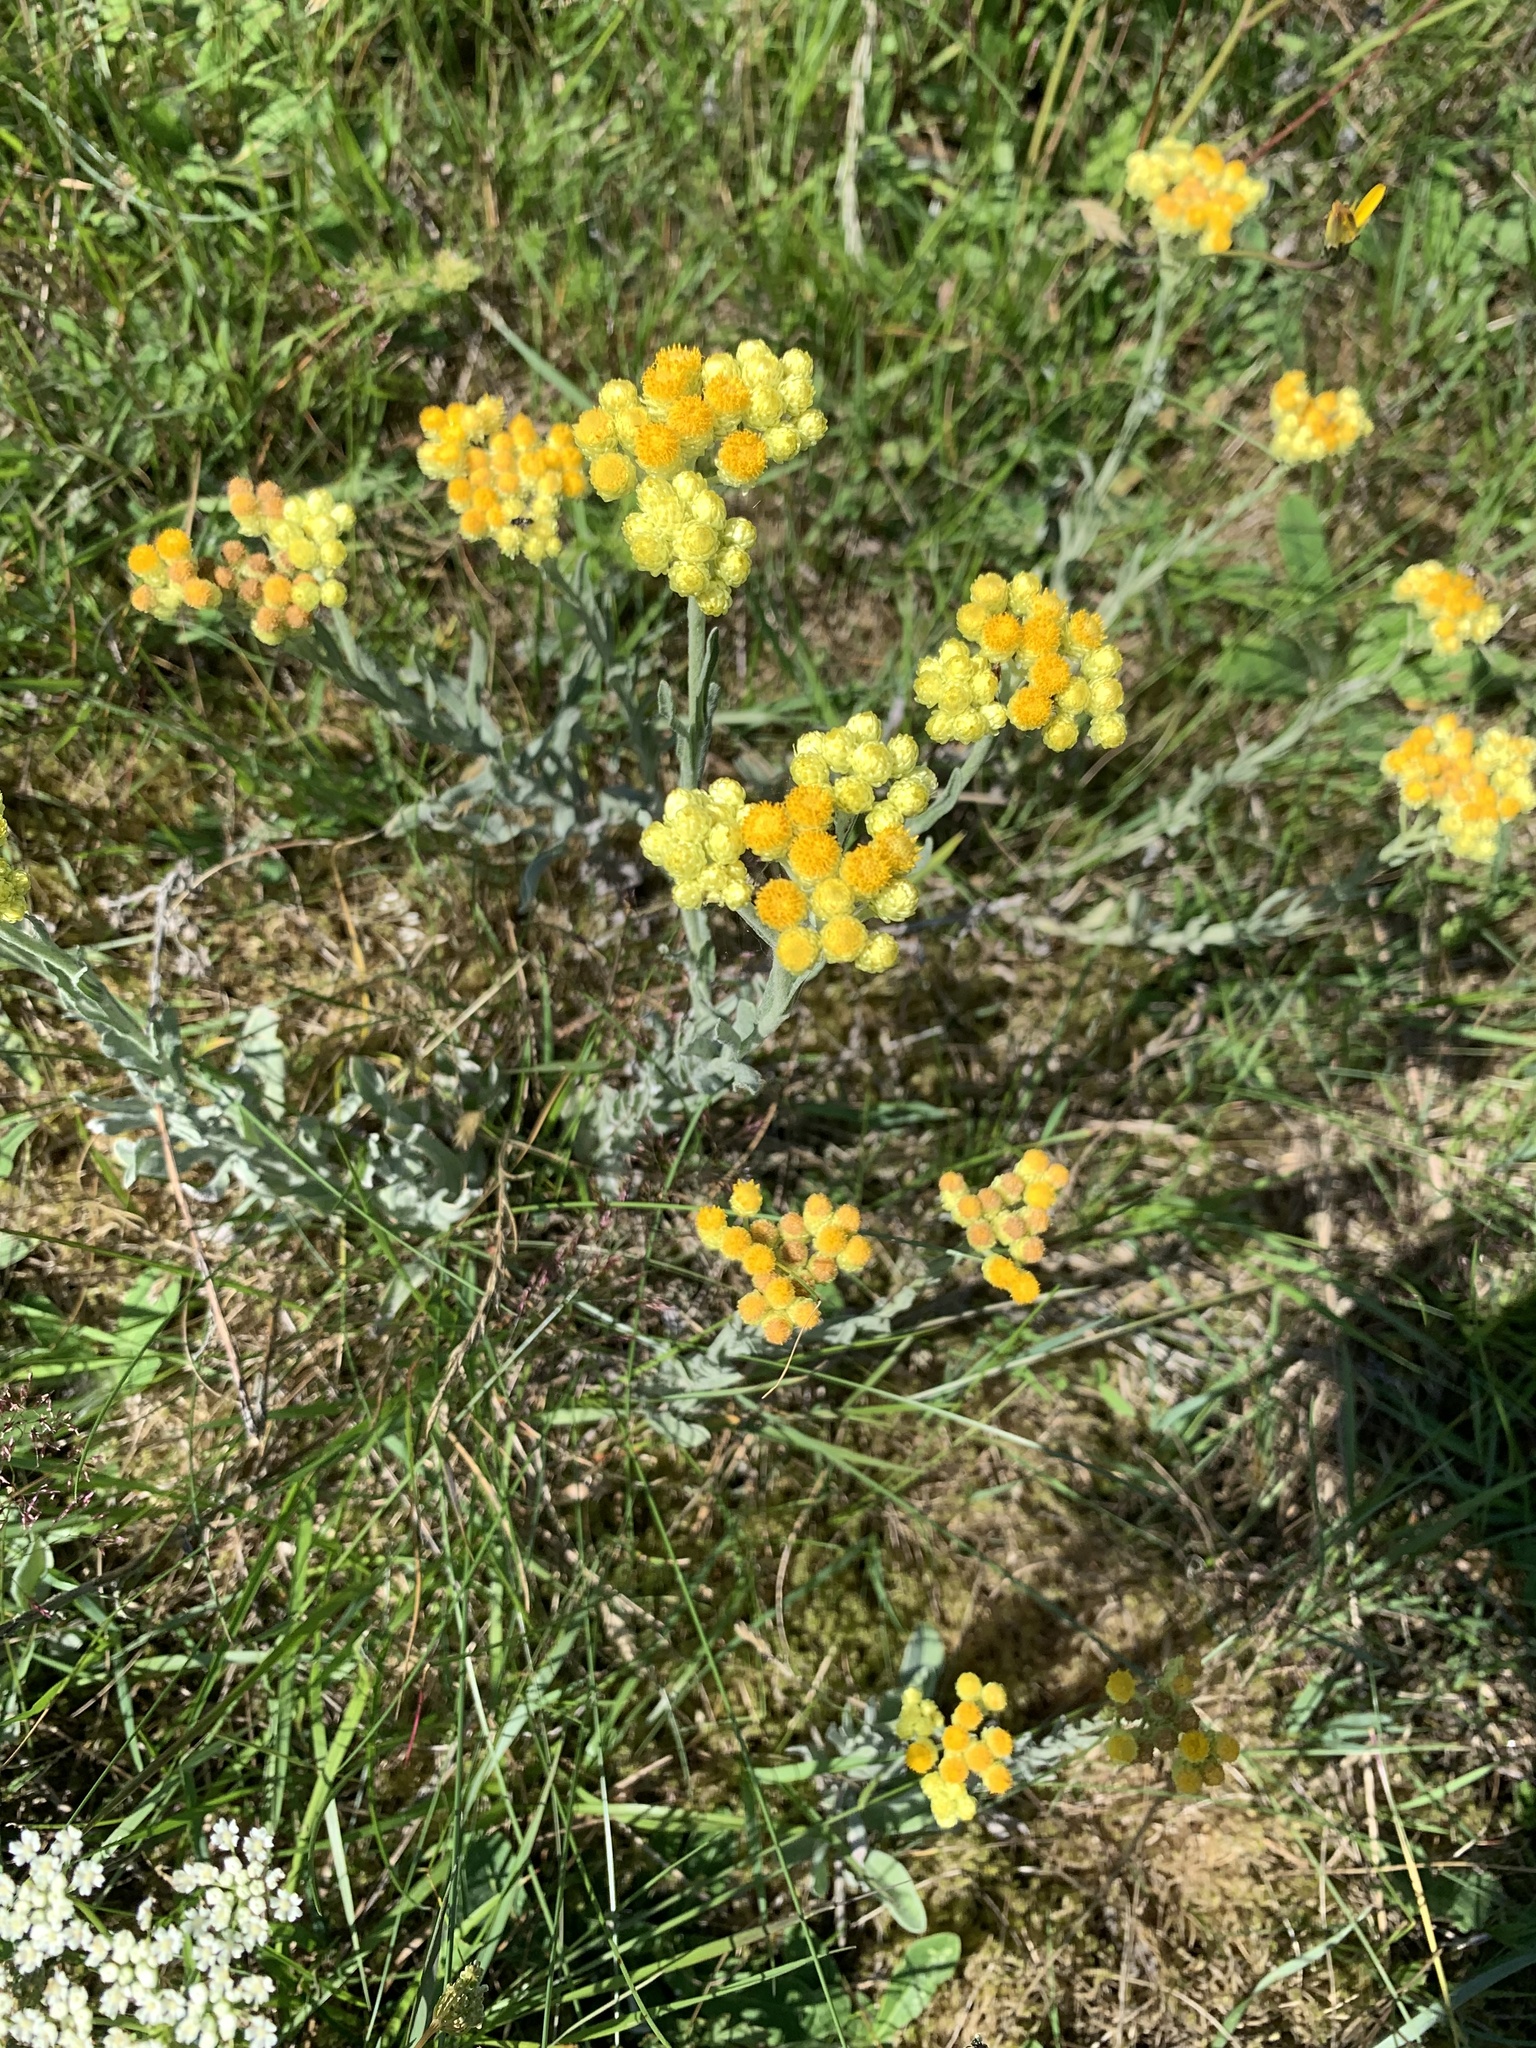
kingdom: Plantae
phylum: Tracheophyta
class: Magnoliopsida
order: Asterales
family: Asteraceae
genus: Helichrysum
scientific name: Helichrysum arenarium
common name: Strawflower
